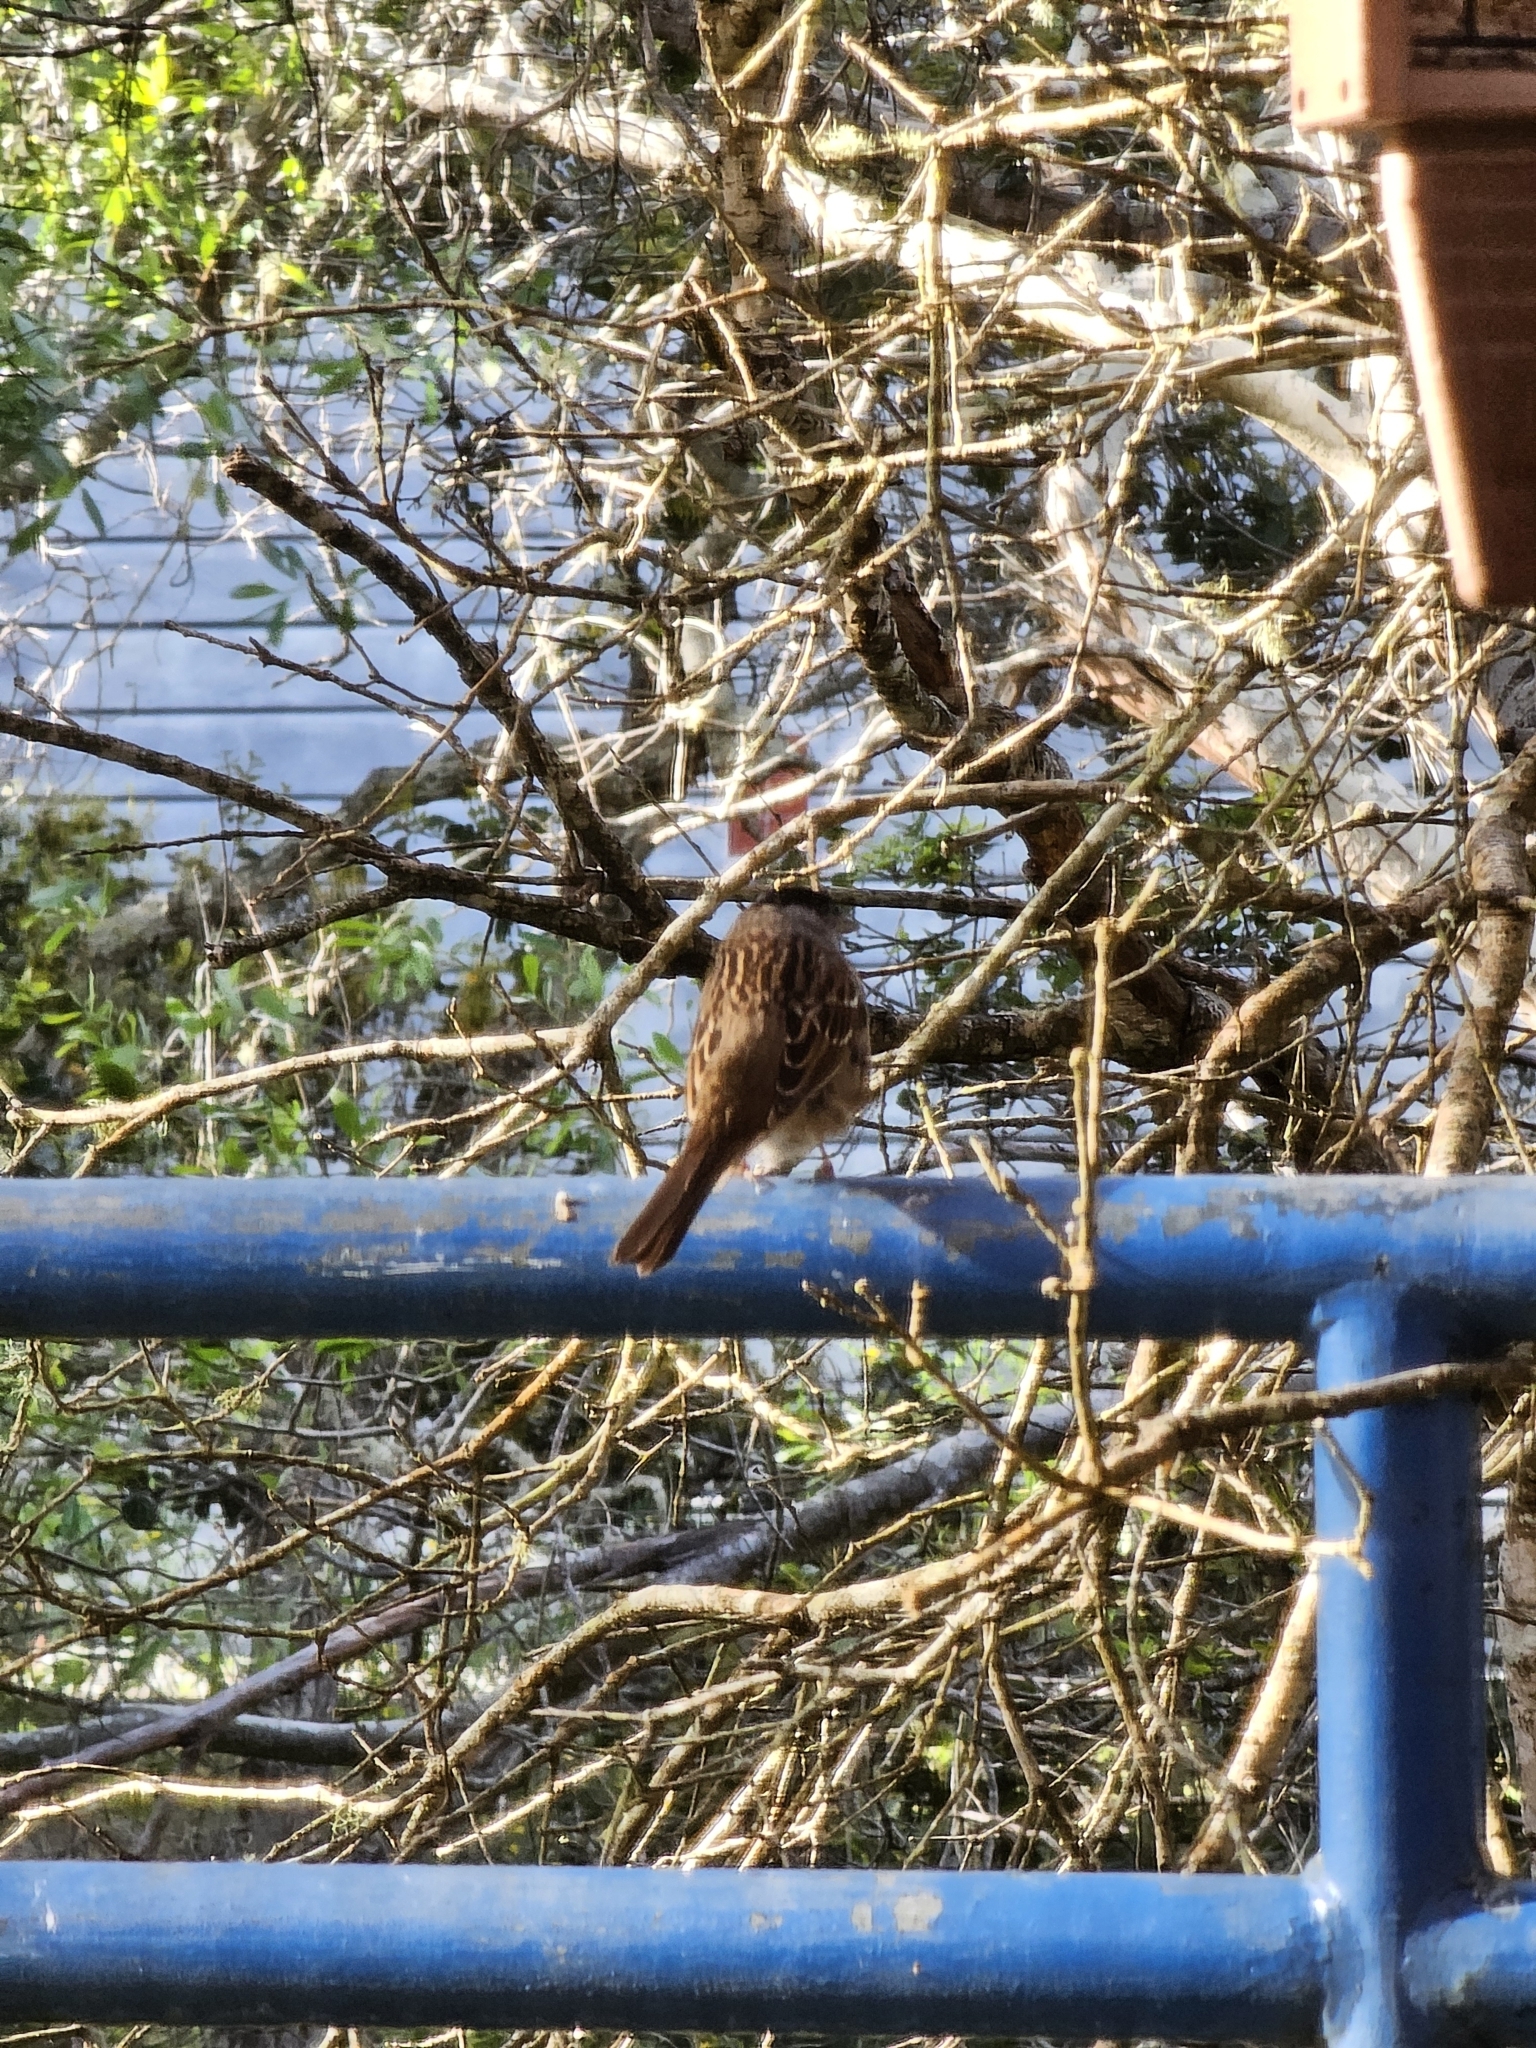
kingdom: Animalia
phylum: Chordata
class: Aves
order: Passeriformes
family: Passerellidae
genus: Zonotrichia
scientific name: Zonotrichia atricapilla
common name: Golden-crowned sparrow
